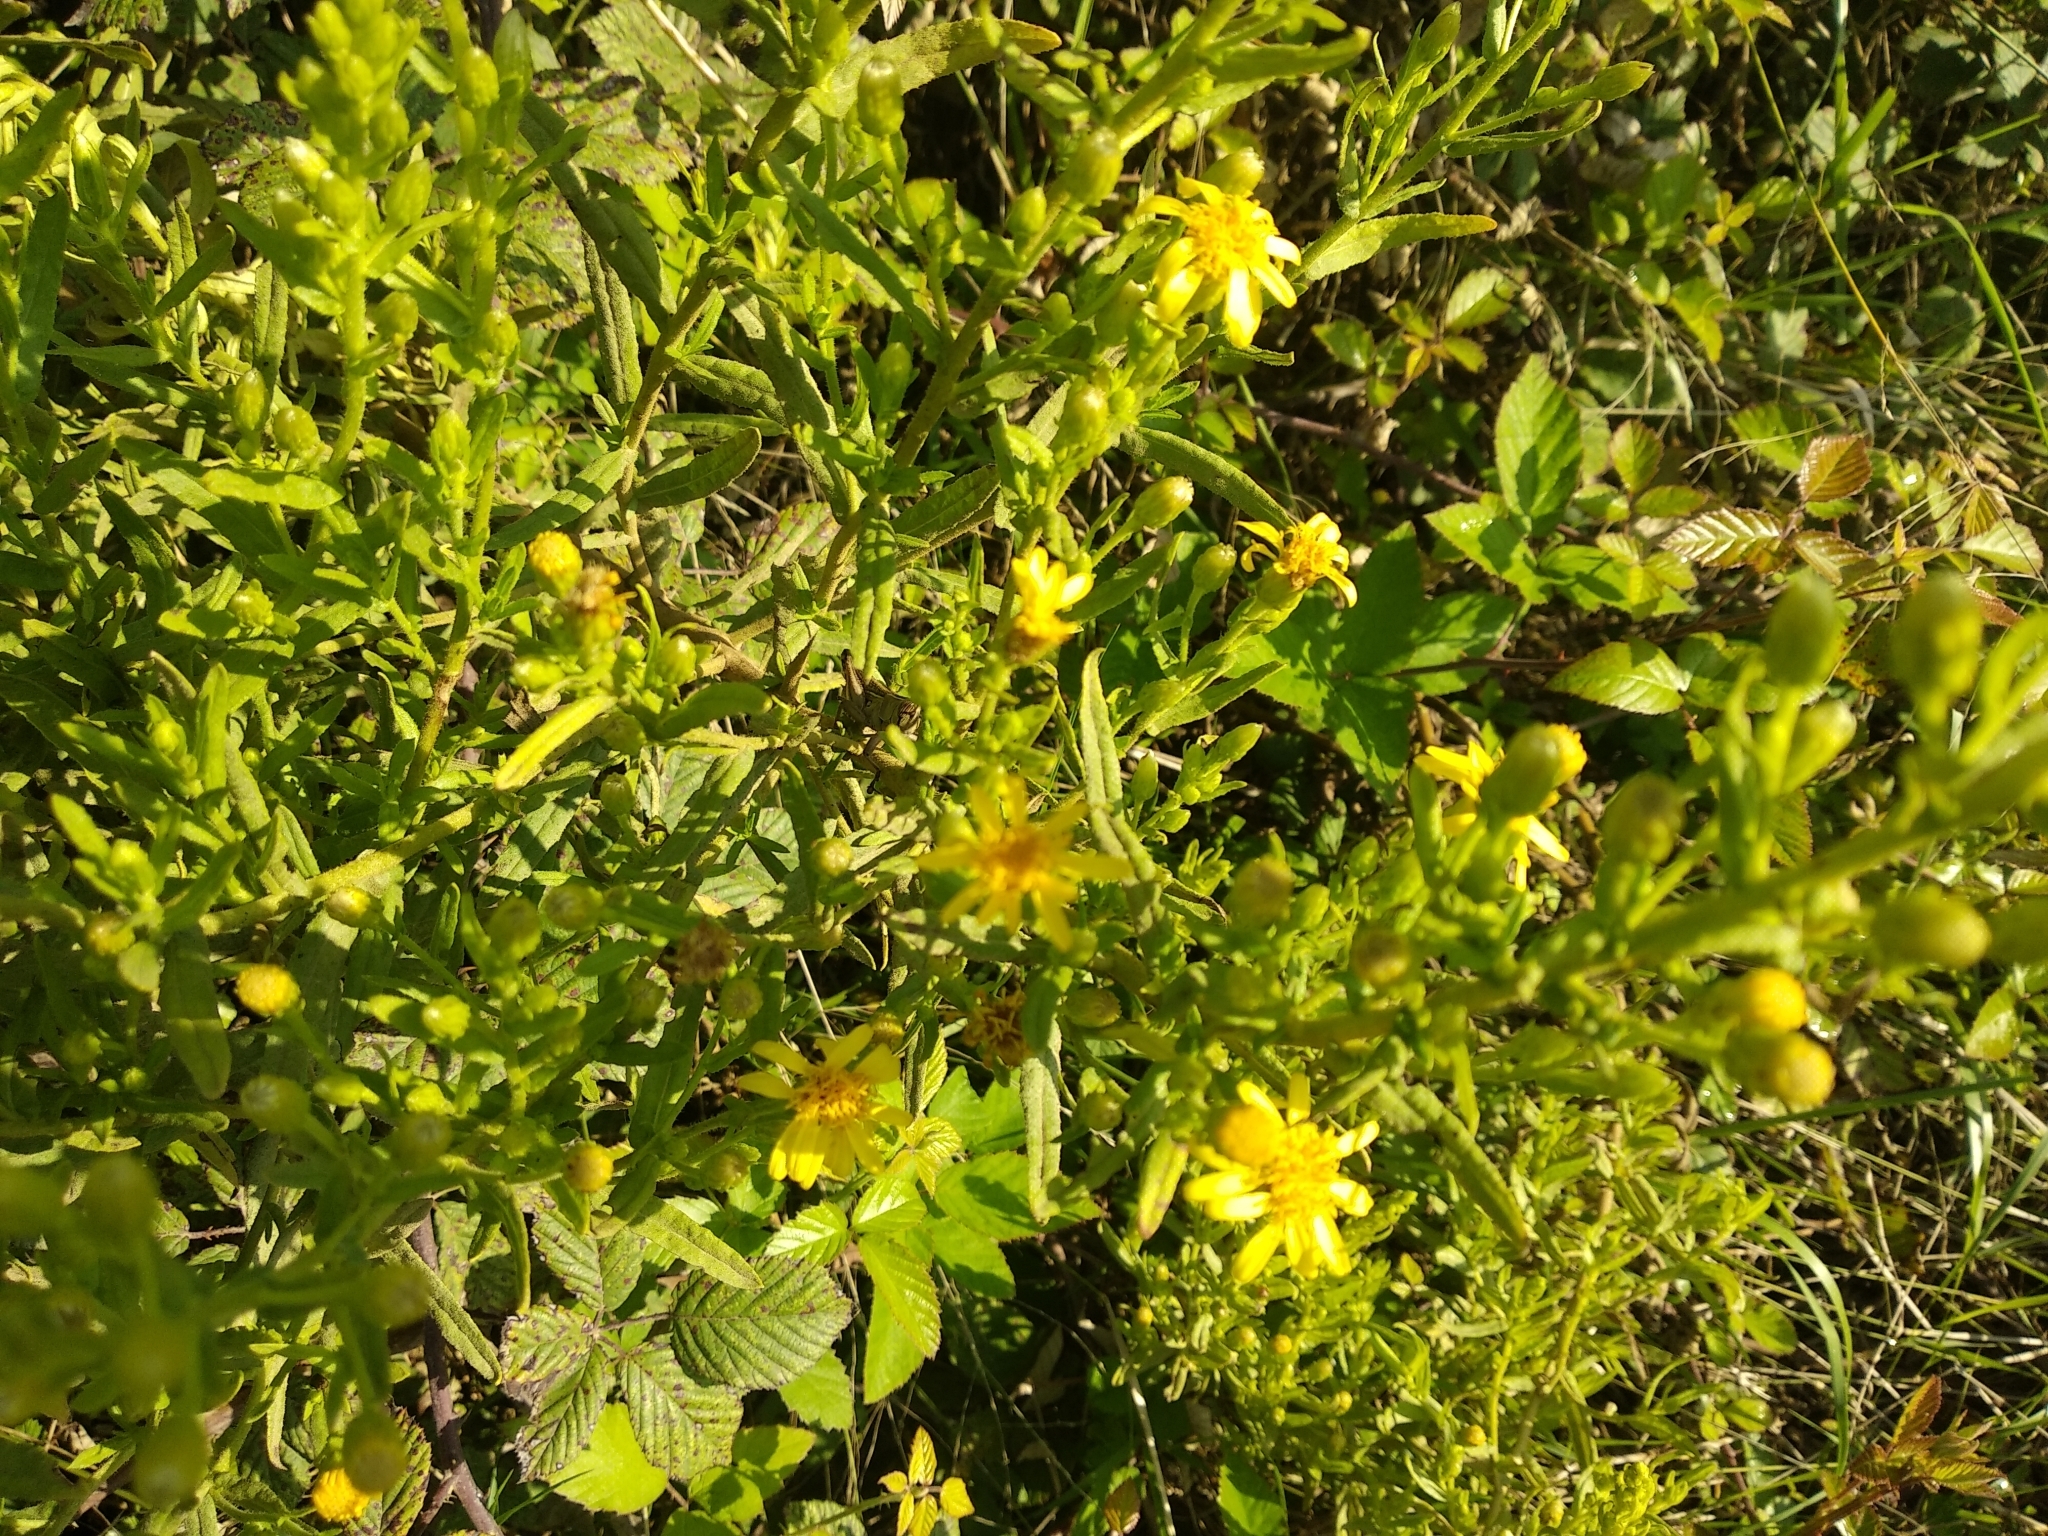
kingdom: Plantae
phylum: Tracheophyta
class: Magnoliopsida
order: Asterales
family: Asteraceae
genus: Dittrichia
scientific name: Dittrichia viscosa
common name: Woody fleabane
